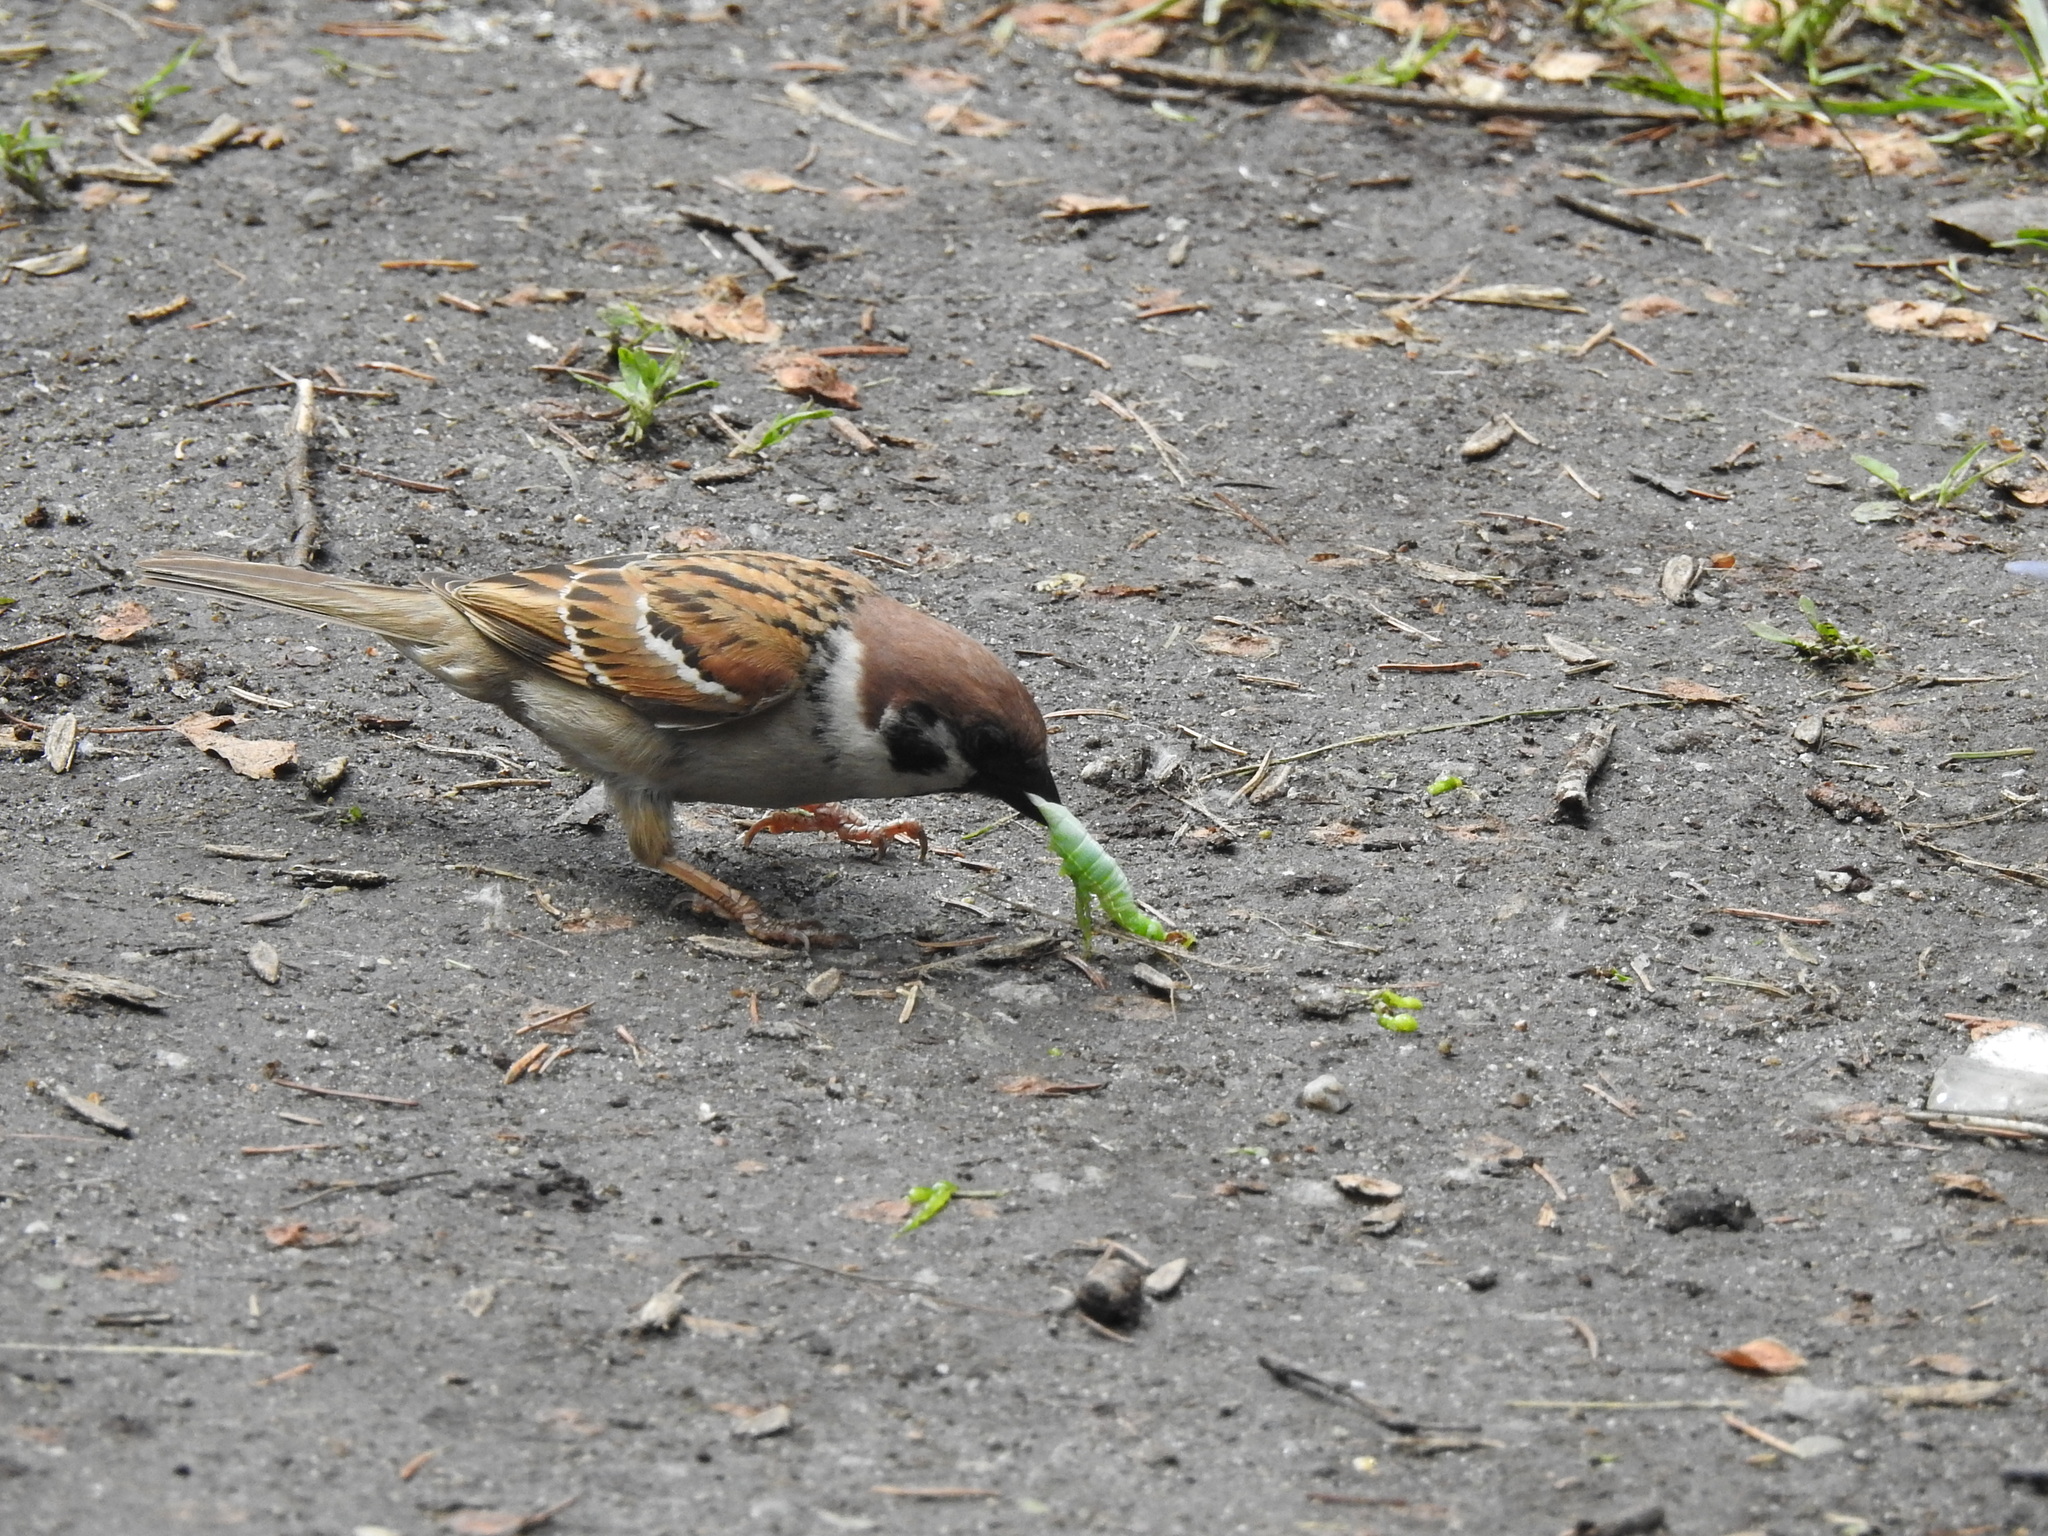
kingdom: Animalia
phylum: Chordata
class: Aves
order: Passeriformes
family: Passeridae
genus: Passer
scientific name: Passer montanus
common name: Eurasian tree sparrow
